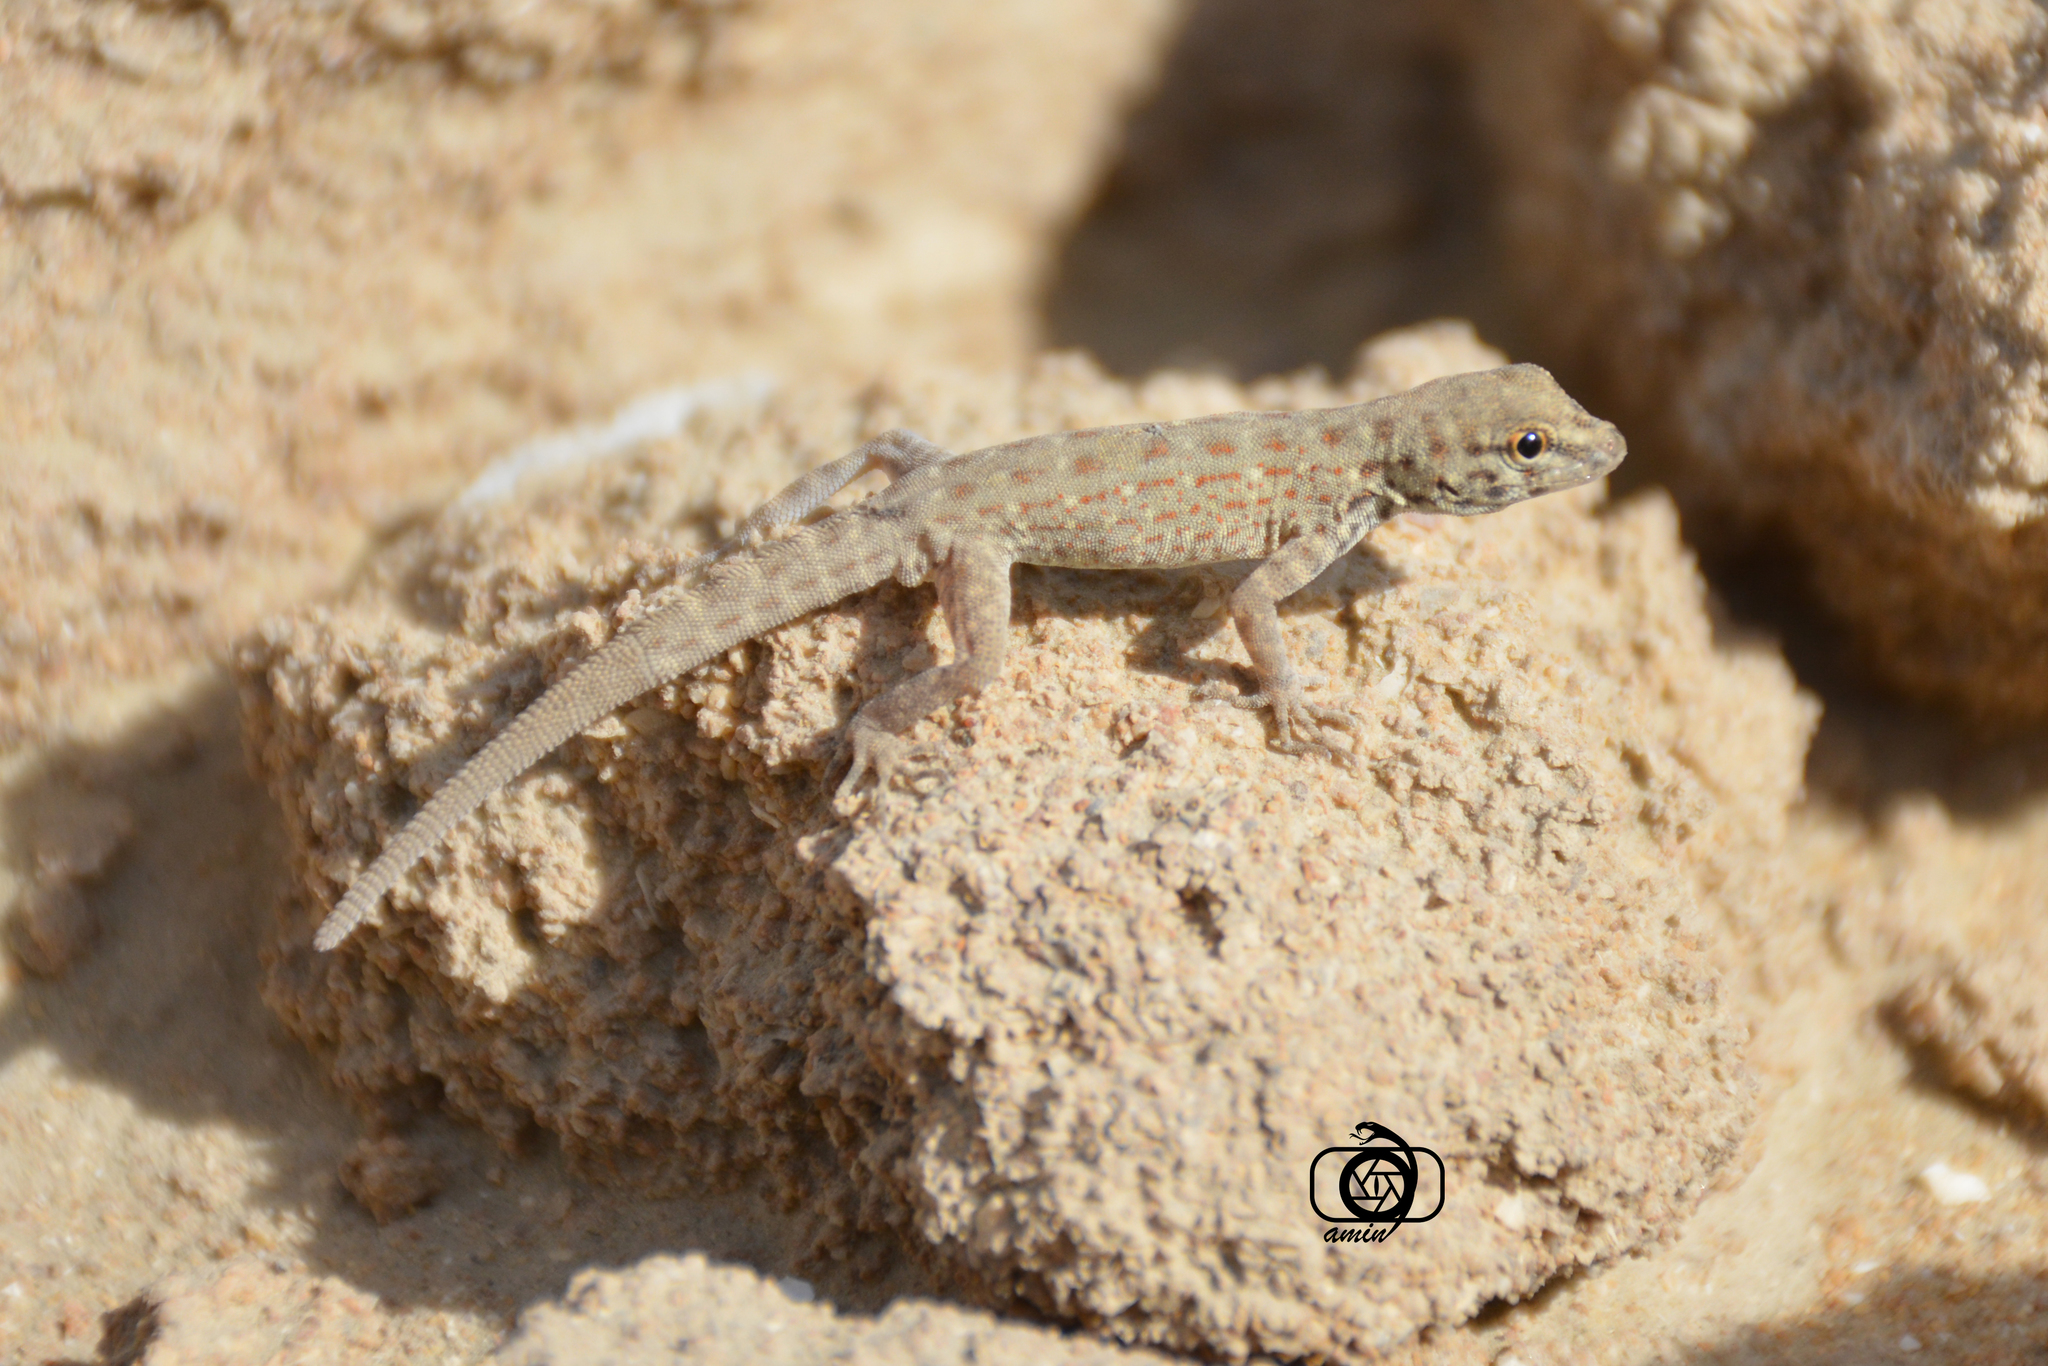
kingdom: Animalia
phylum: Chordata
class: Squamata
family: Sphaerodactylidae
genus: Pristurus
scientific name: Pristurus rupestris
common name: Blanford’s semaphore gecko
